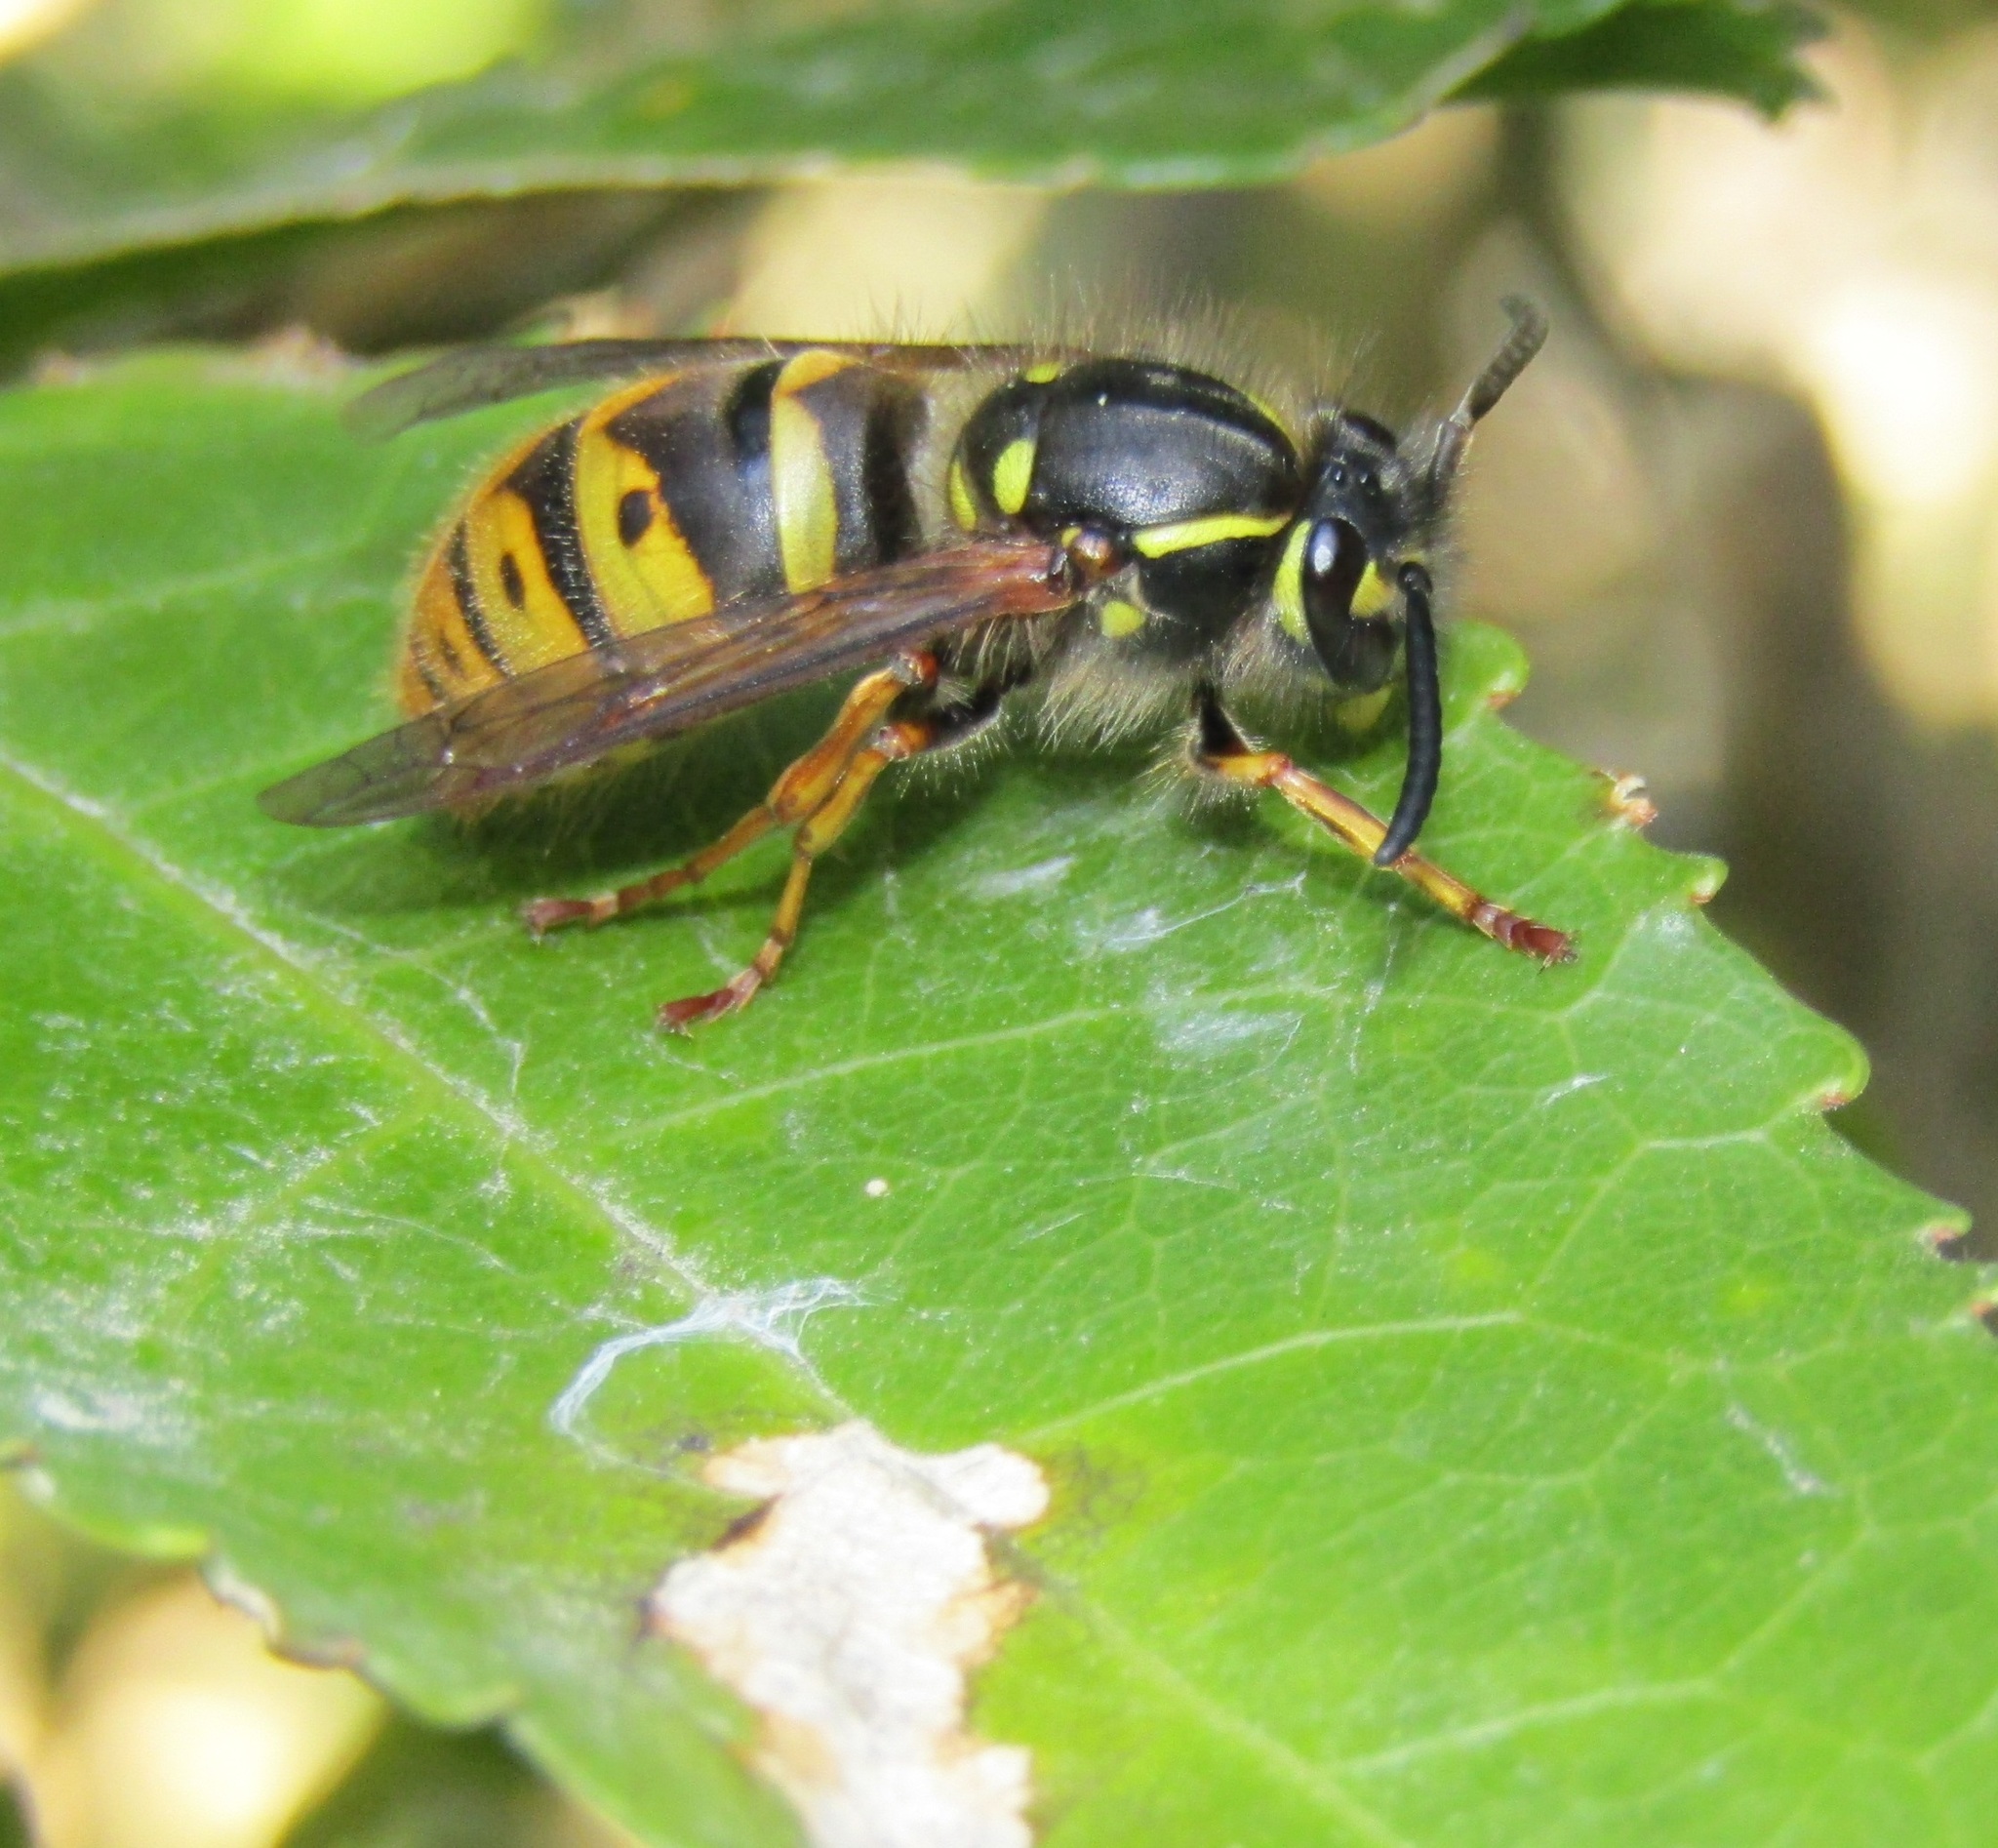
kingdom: Animalia
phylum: Arthropoda
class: Insecta
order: Hymenoptera
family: Vespidae
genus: Vespula
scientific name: Vespula vulgaris
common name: Common wasp
